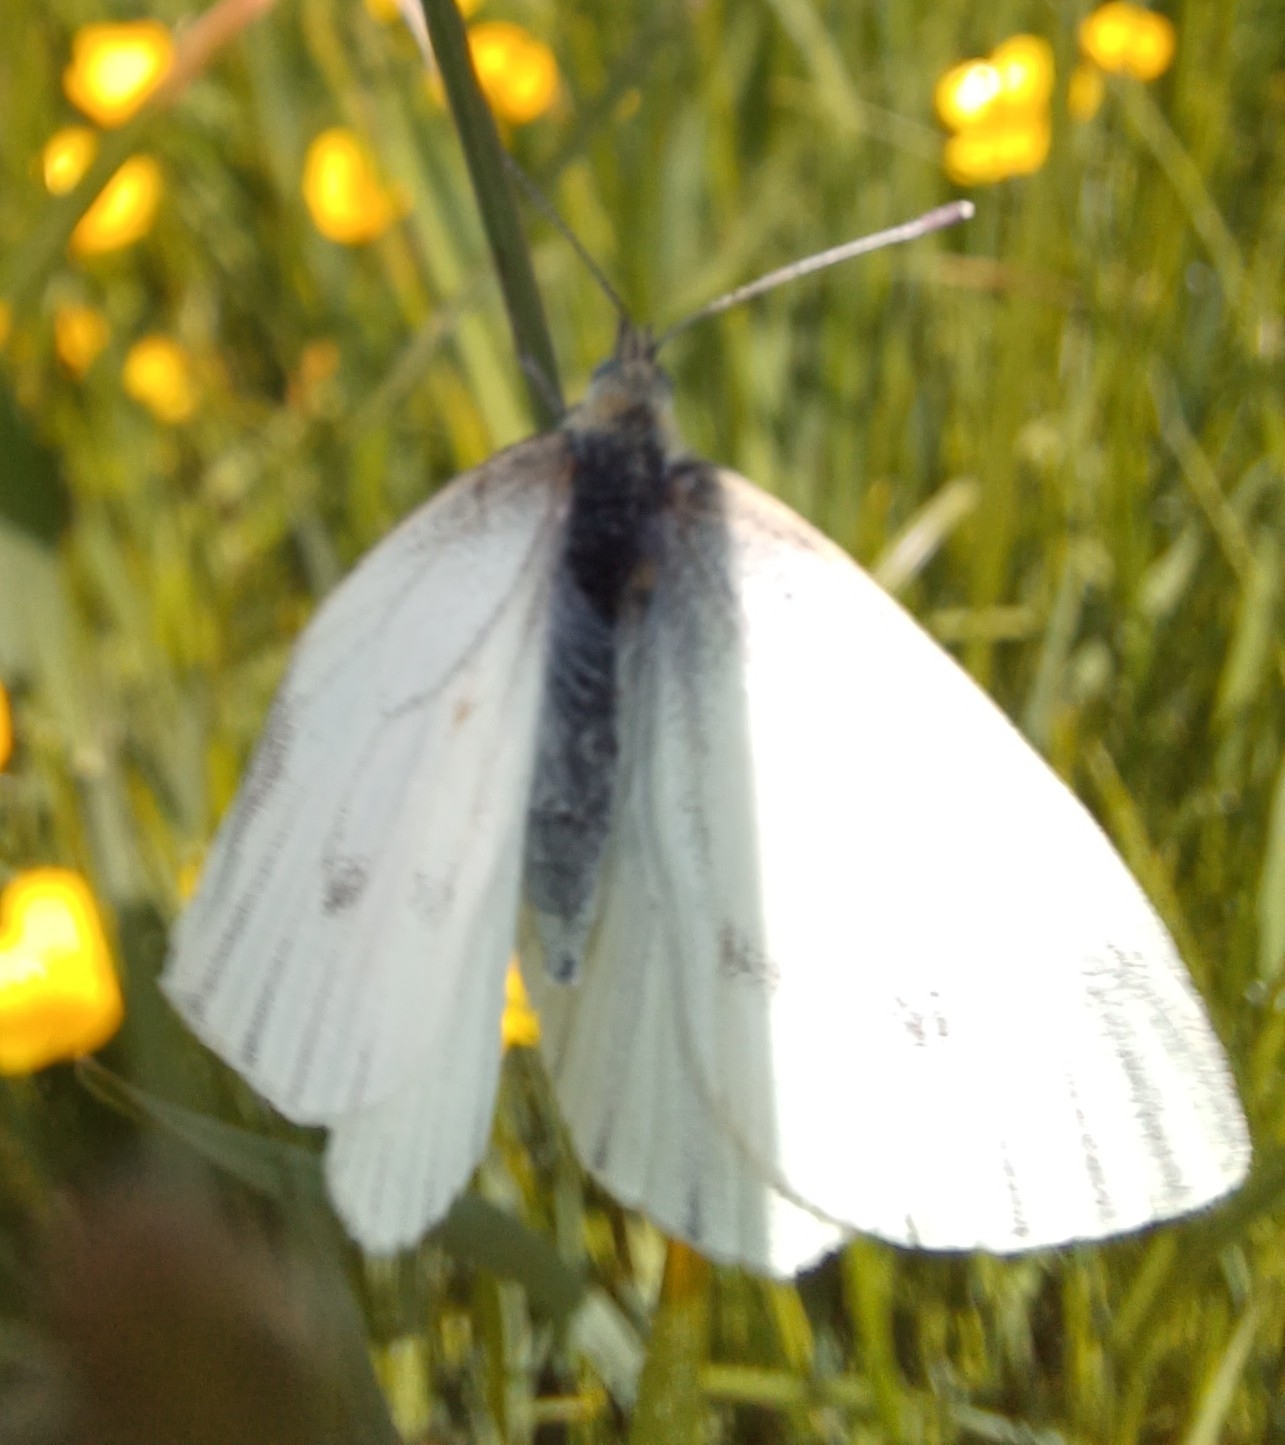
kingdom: Animalia
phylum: Arthropoda
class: Insecta
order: Lepidoptera
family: Pieridae
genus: Pieris
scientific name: Pieris napi
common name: Green-veined white
